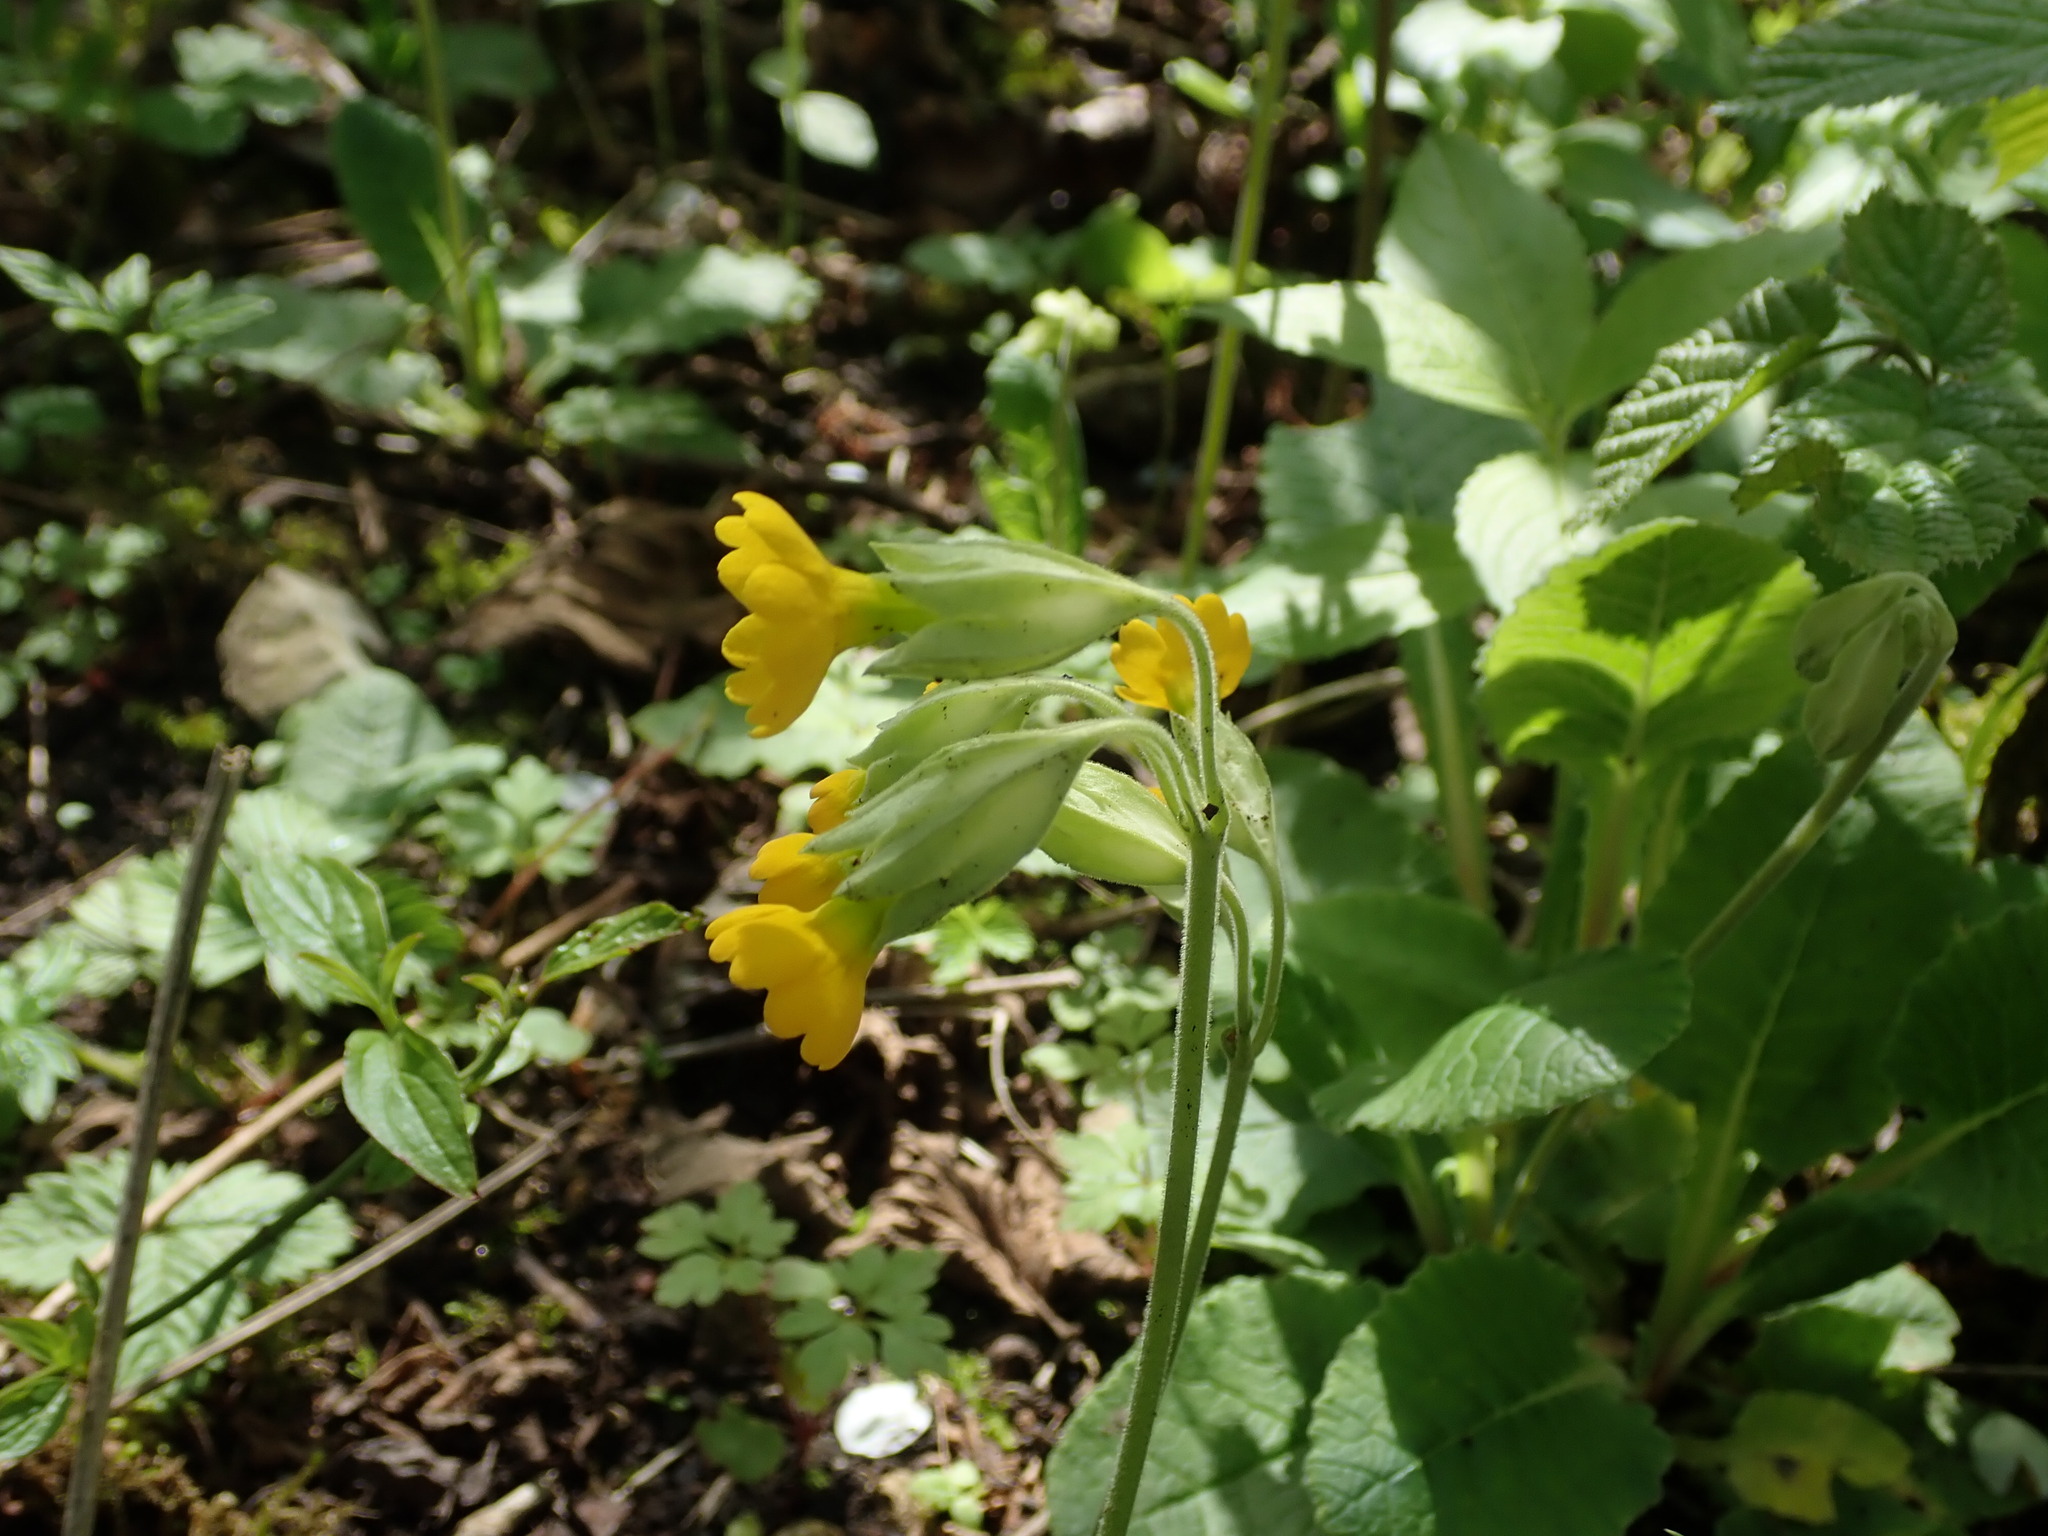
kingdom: Plantae
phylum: Tracheophyta
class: Magnoliopsida
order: Ericales
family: Primulaceae
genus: Primula
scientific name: Primula veris
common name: Cowslip
